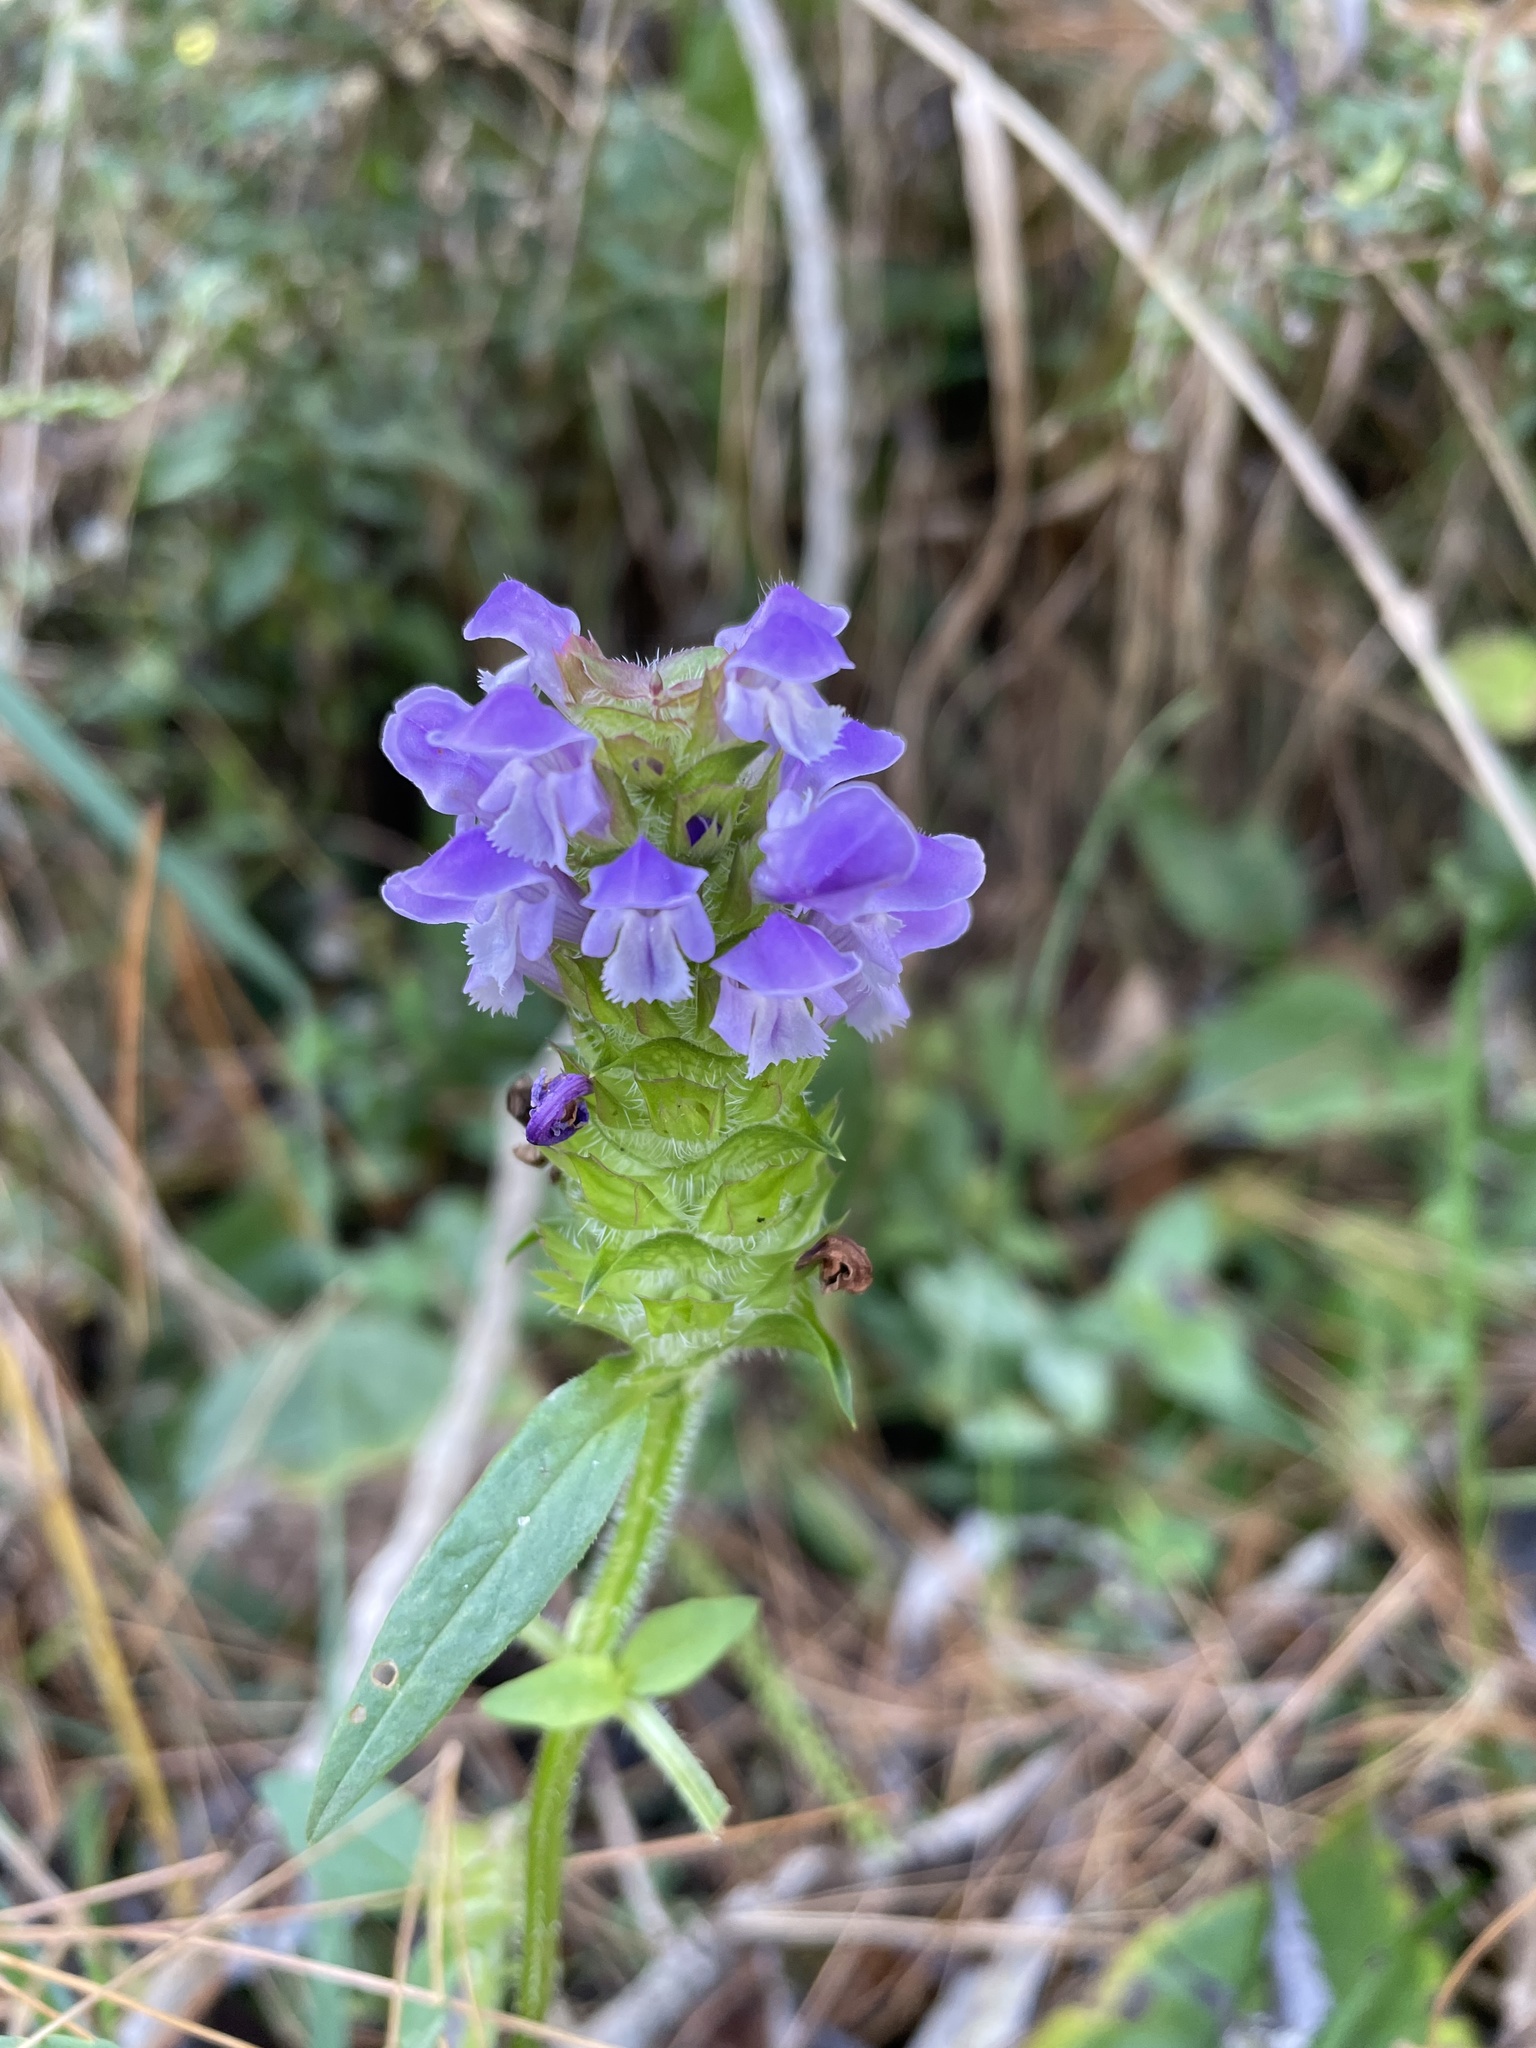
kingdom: Plantae
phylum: Tracheophyta
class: Magnoliopsida
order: Lamiales
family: Lamiaceae
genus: Prunella
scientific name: Prunella vulgaris
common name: Heal-all
